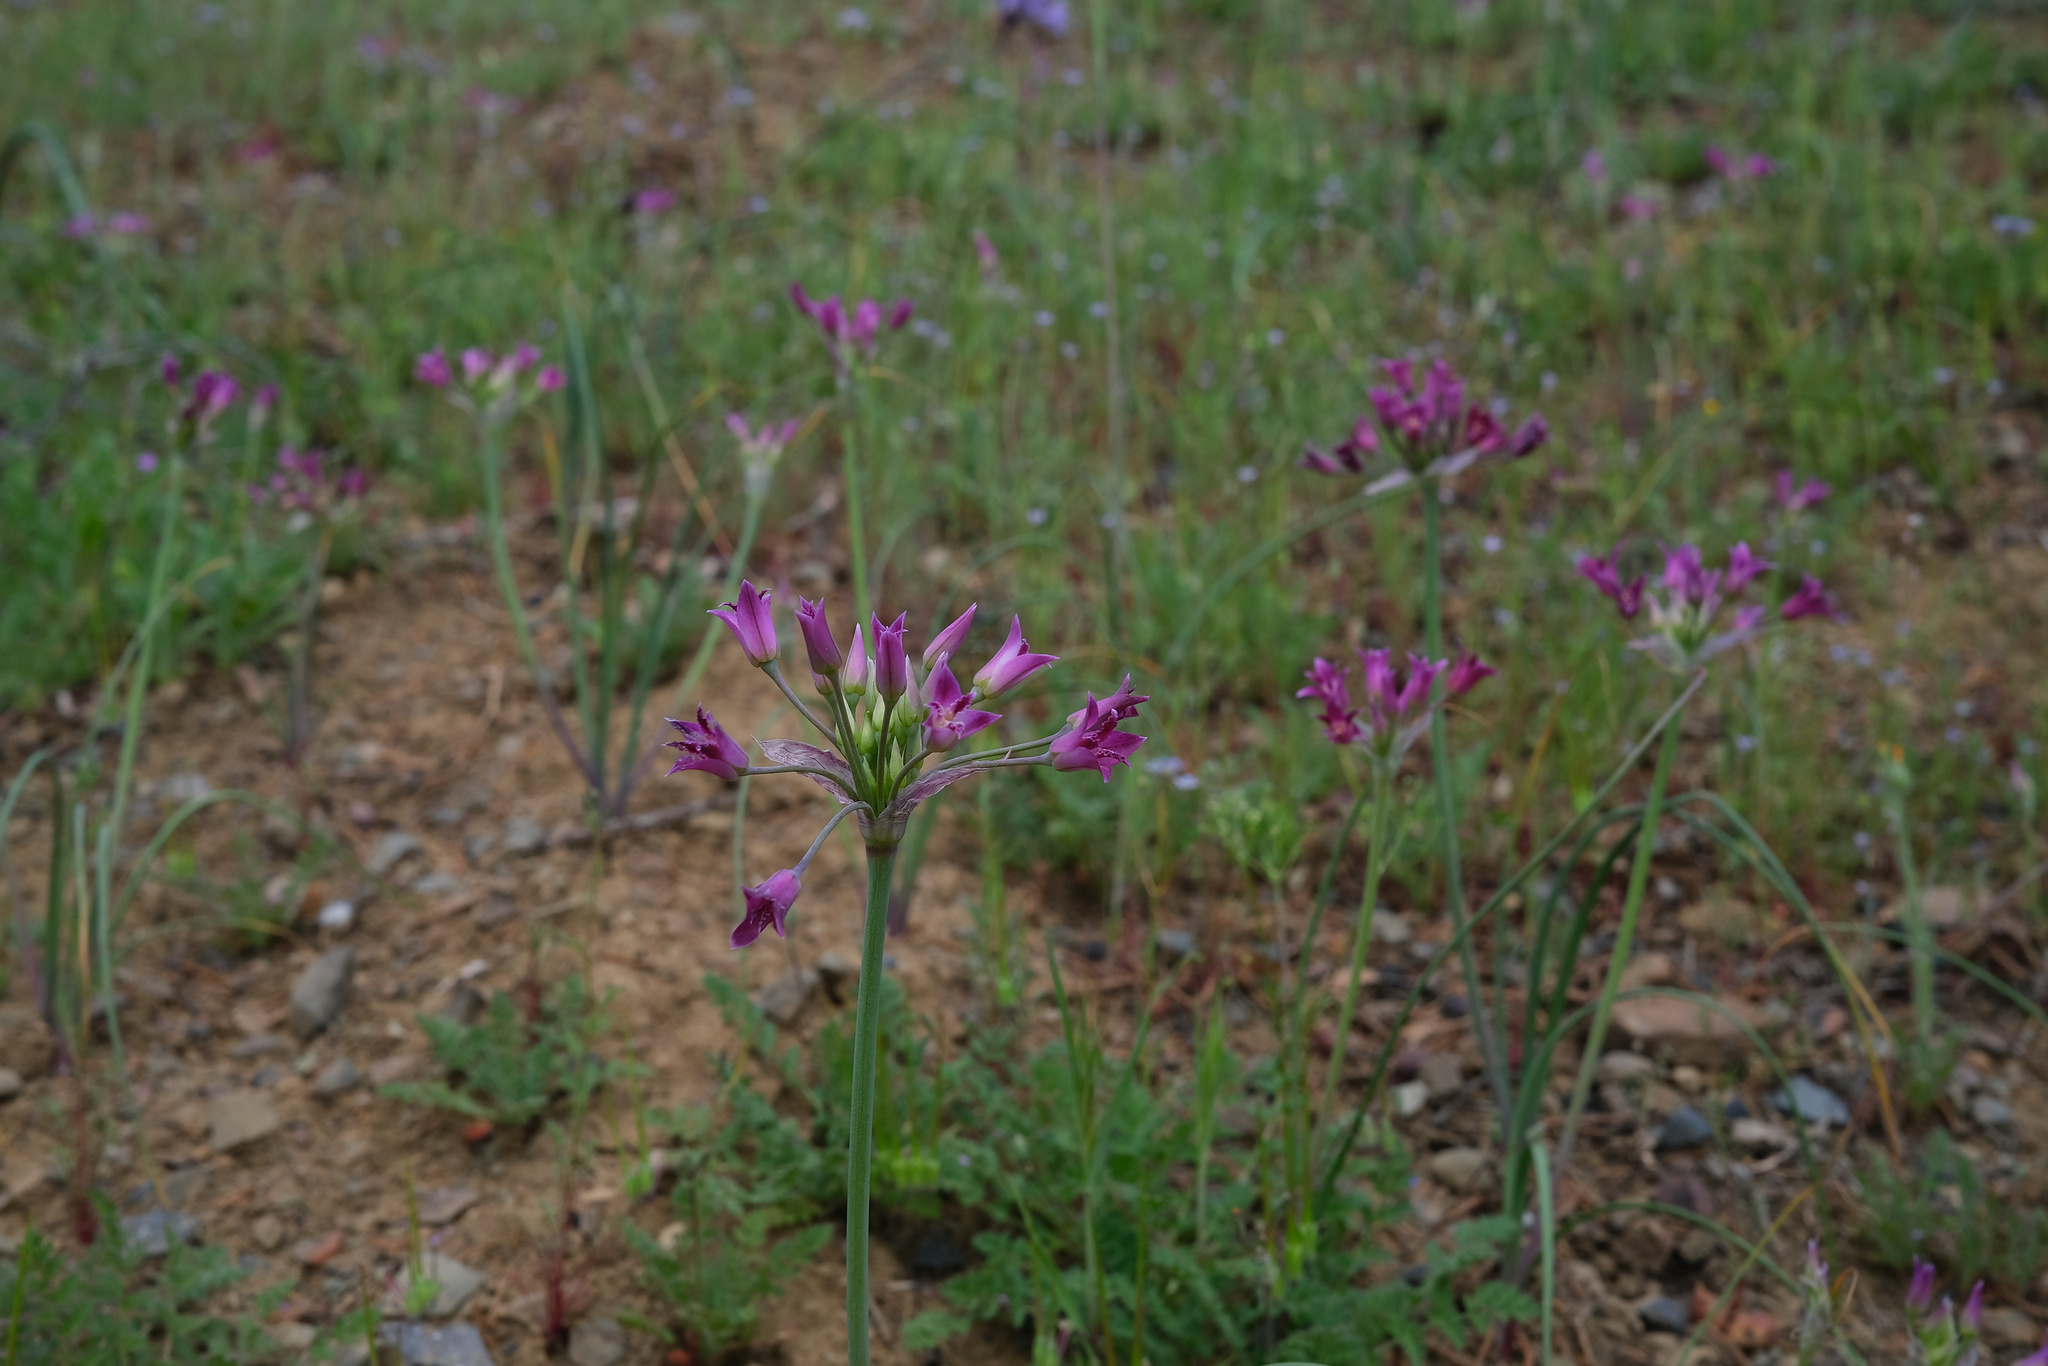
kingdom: Plantae
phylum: Tracheophyta
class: Liliopsida
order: Asparagales
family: Amaryllidaceae
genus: Allium
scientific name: Allium crispum
